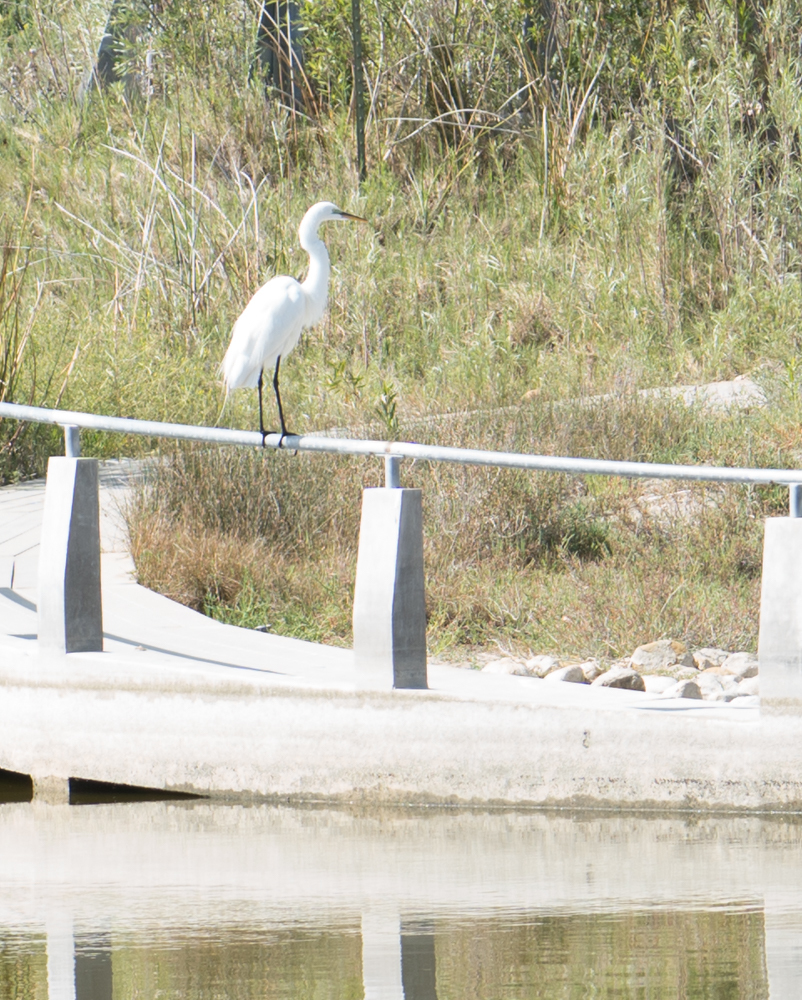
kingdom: Animalia
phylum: Chordata
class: Aves
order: Pelecaniformes
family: Ardeidae
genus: Ardea
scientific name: Ardea alba
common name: Great egret
